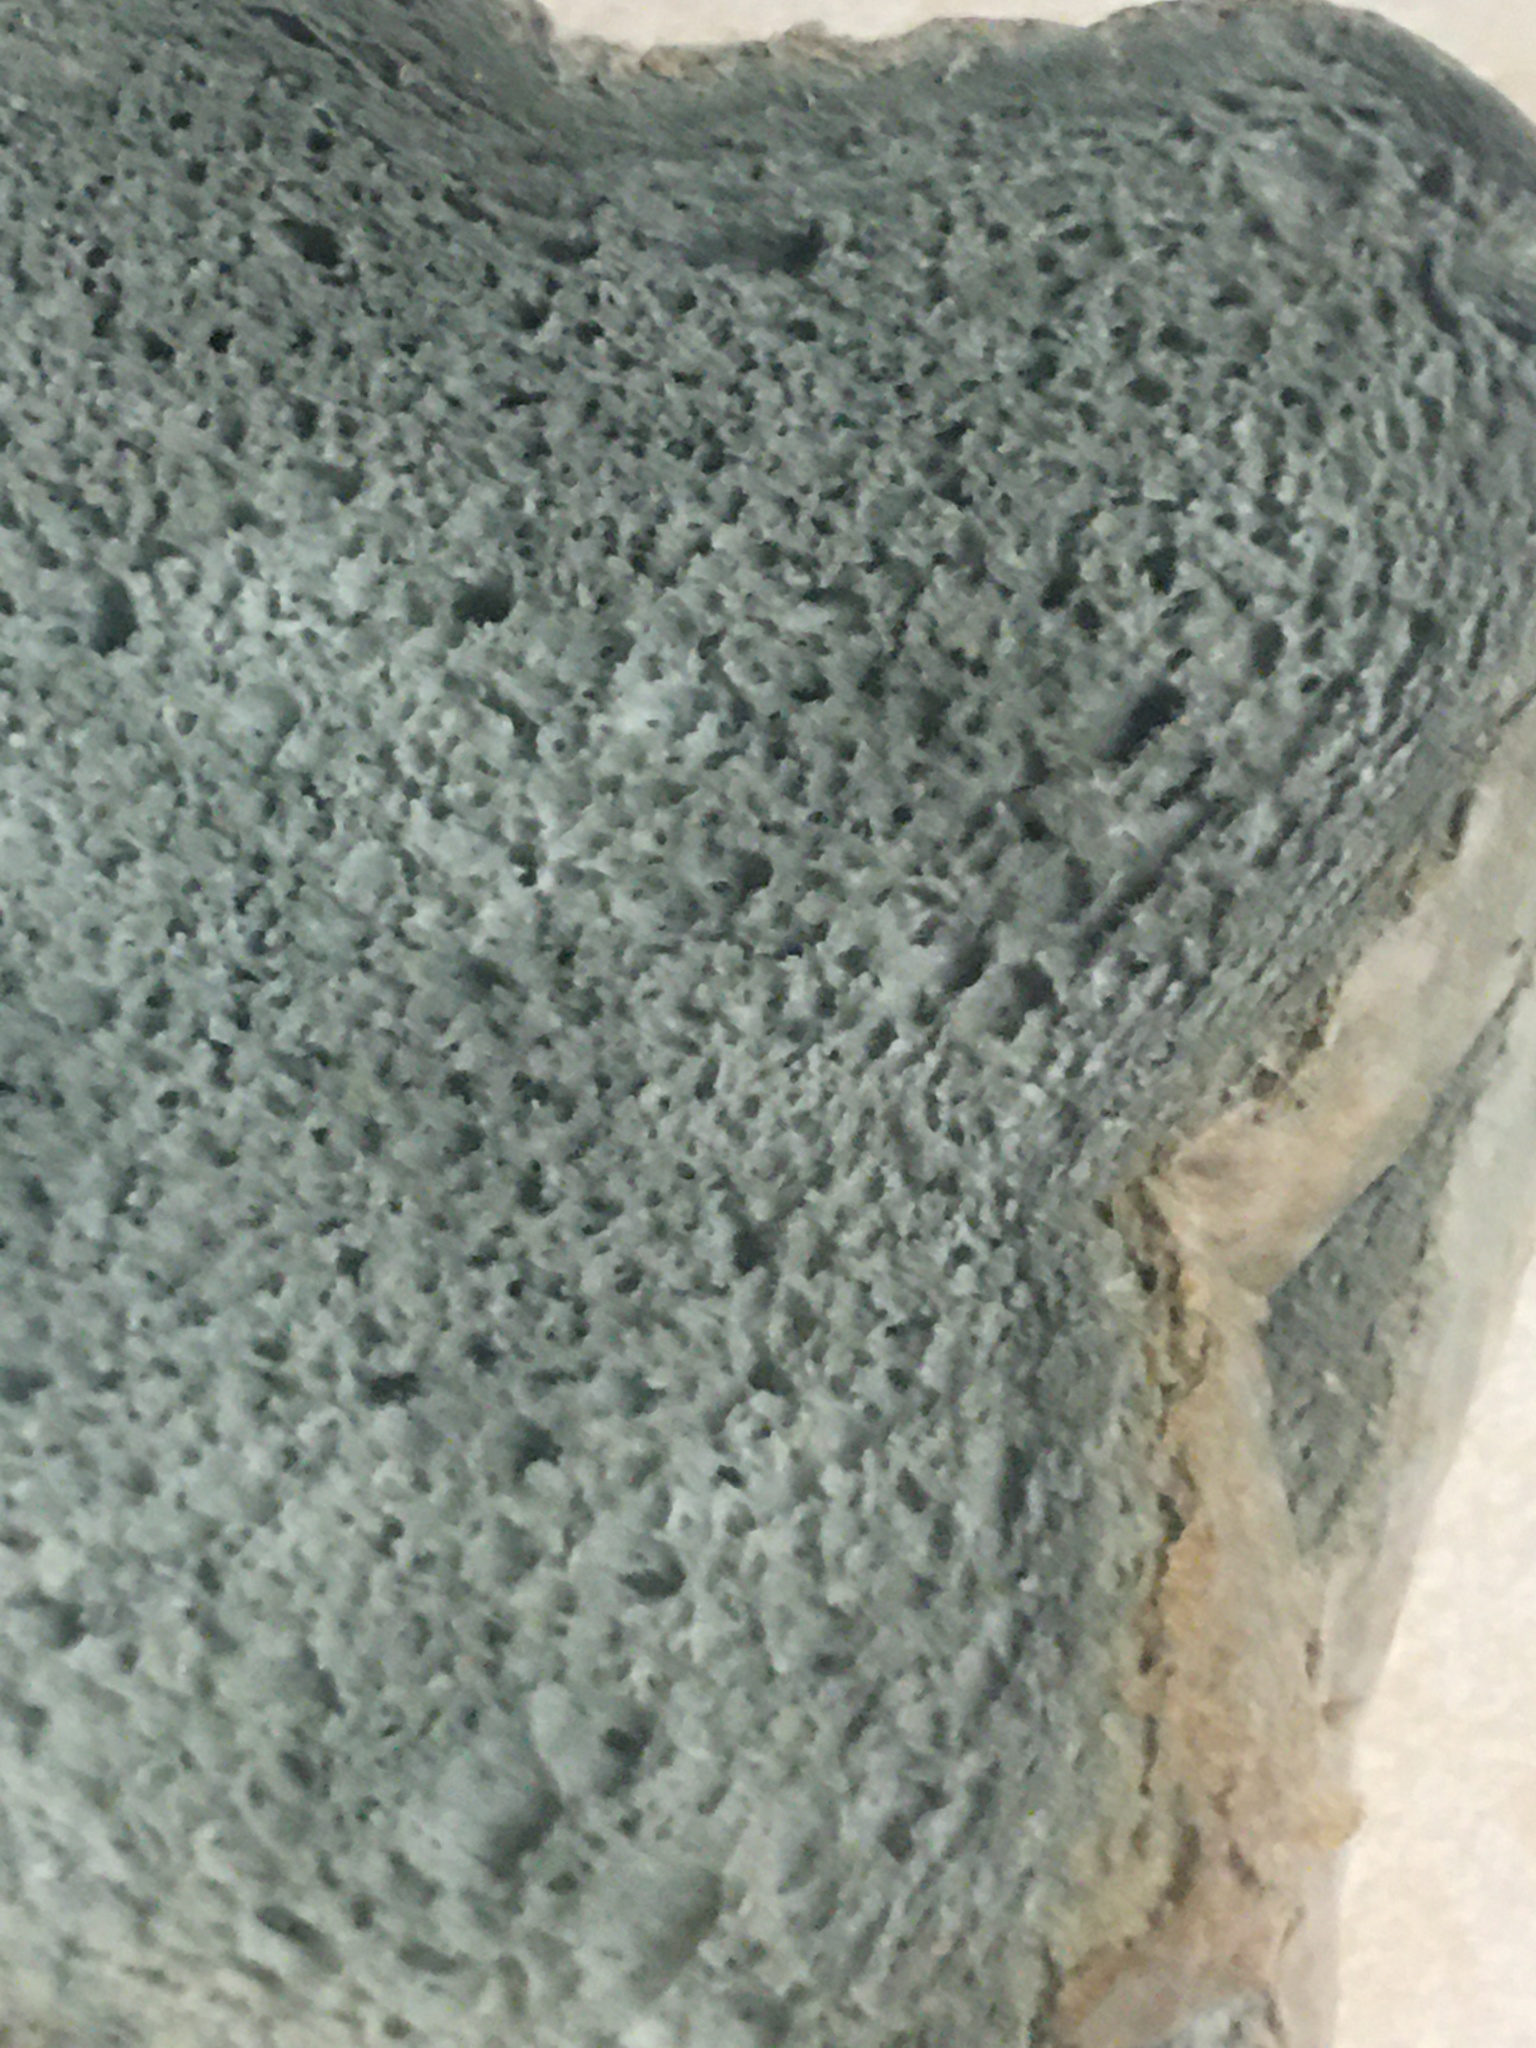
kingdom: Fungi
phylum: Mucoromycota
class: Mucoromycetes
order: Mucorales
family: Rhizopodaceae
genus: Rhizopus
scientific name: Rhizopus stolonifer
